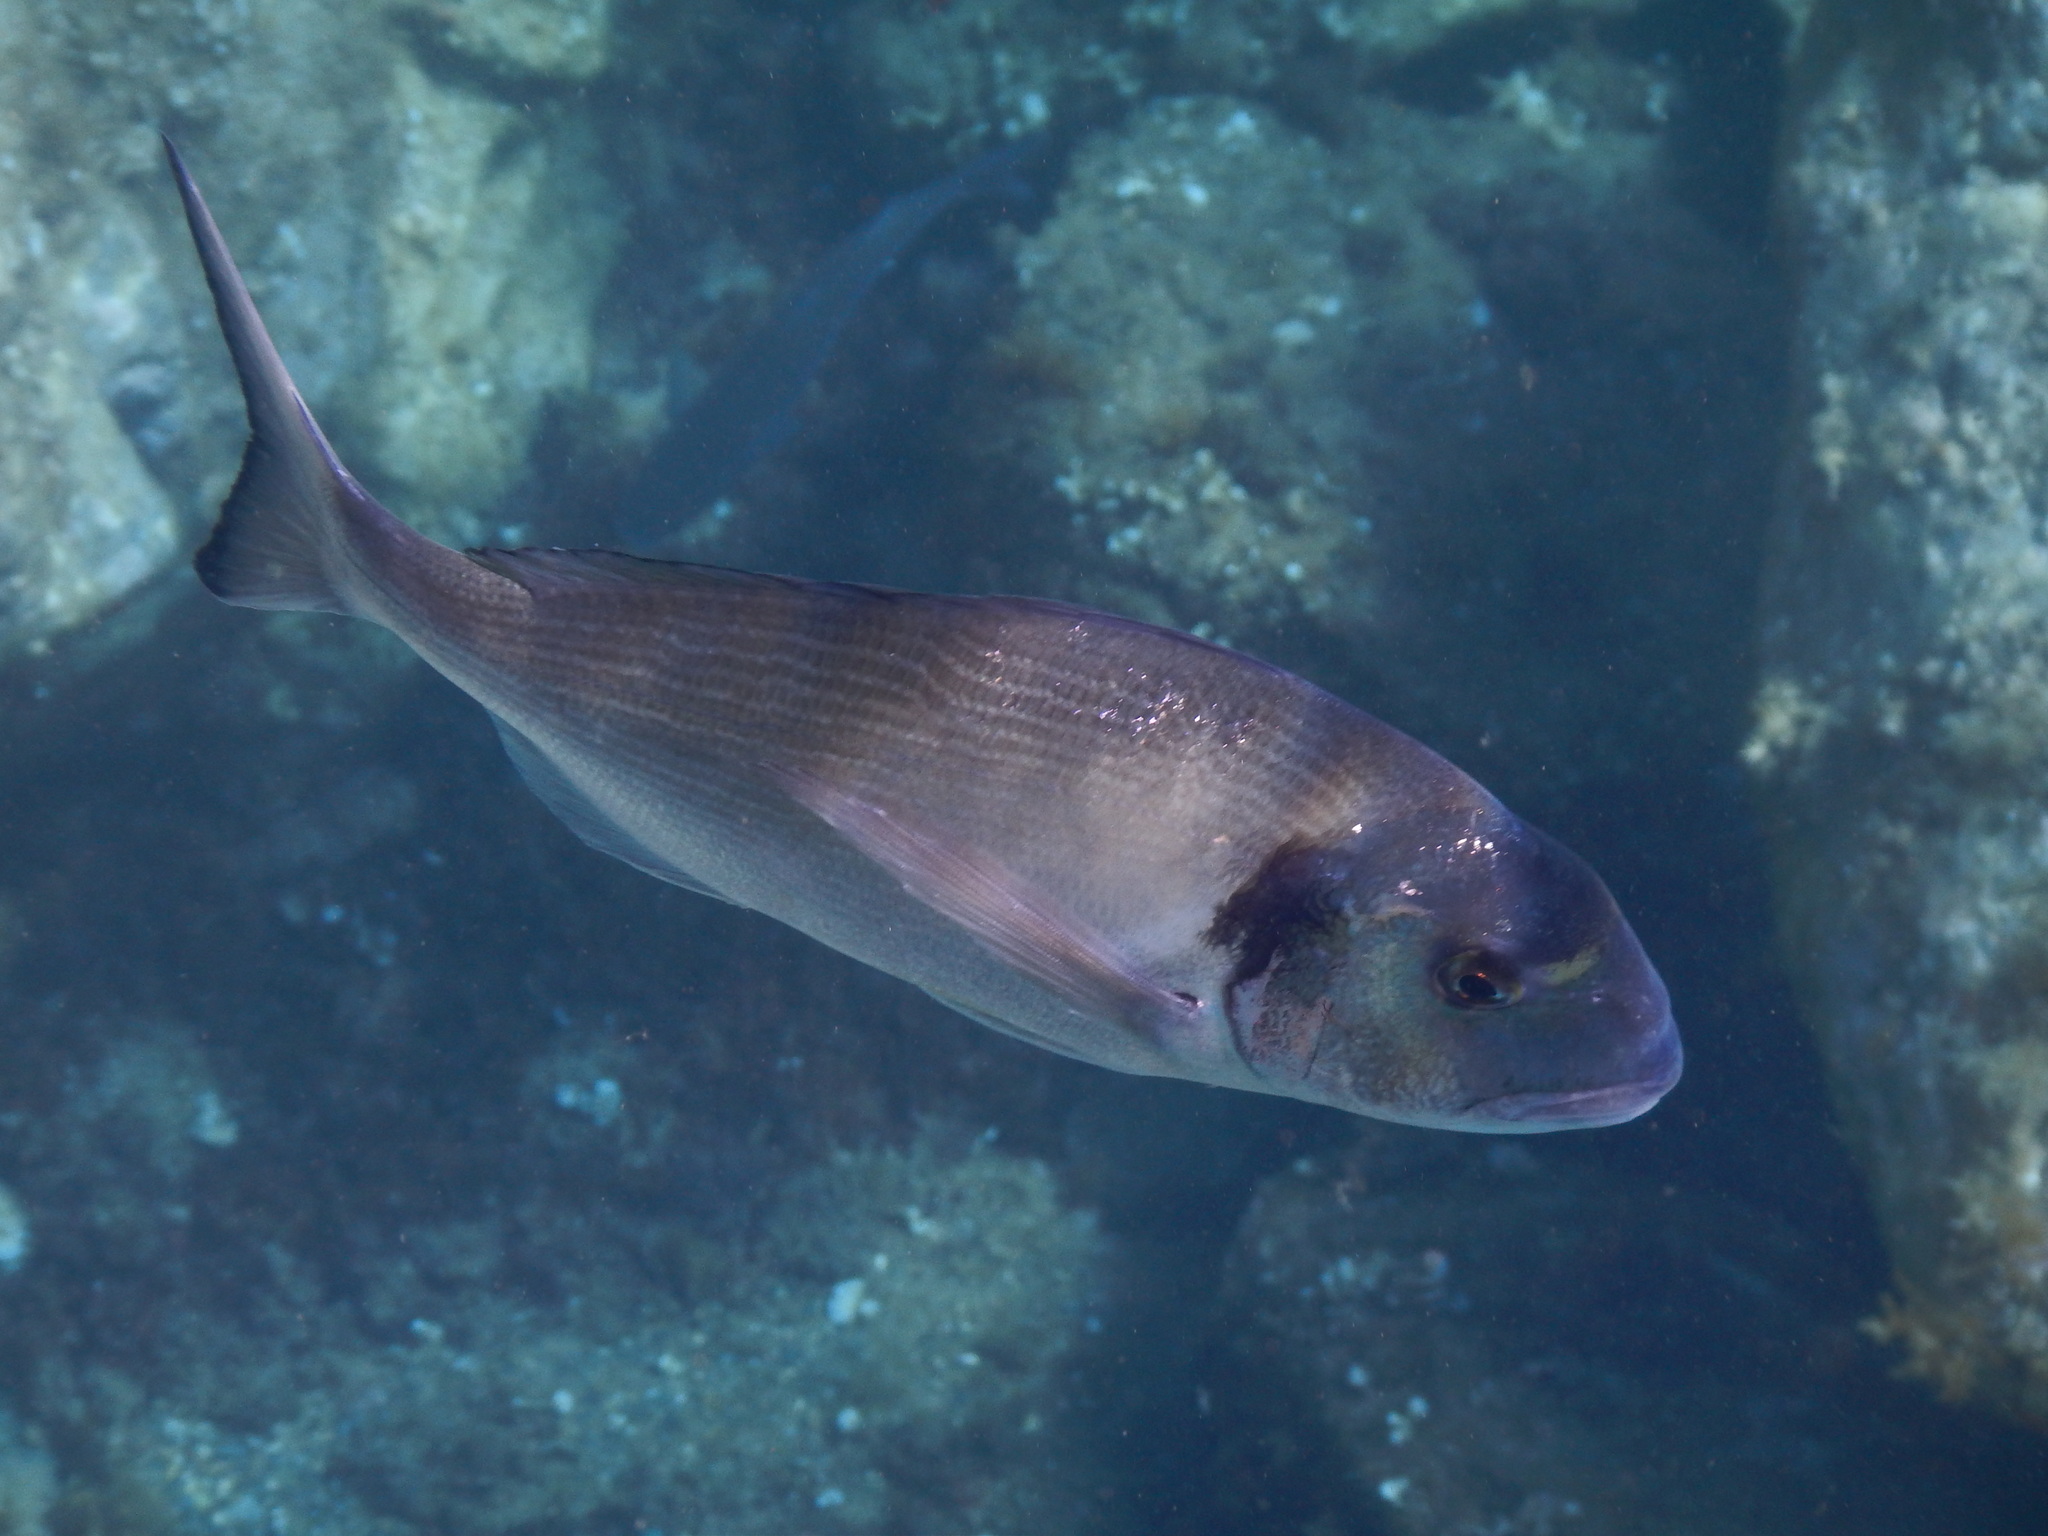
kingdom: Animalia
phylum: Chordata
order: Perciformes
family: Sparidae
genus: Sparus
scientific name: Sparus aurata
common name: Gilthead
